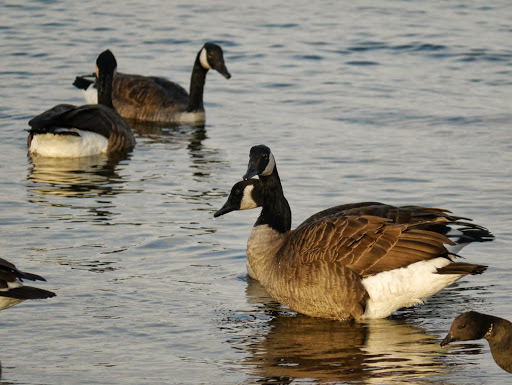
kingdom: Animalia
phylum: Chordata
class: Aves
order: Anseriformes
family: Anatidae
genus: Branta
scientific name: Branta canadensis
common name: Canada goose
